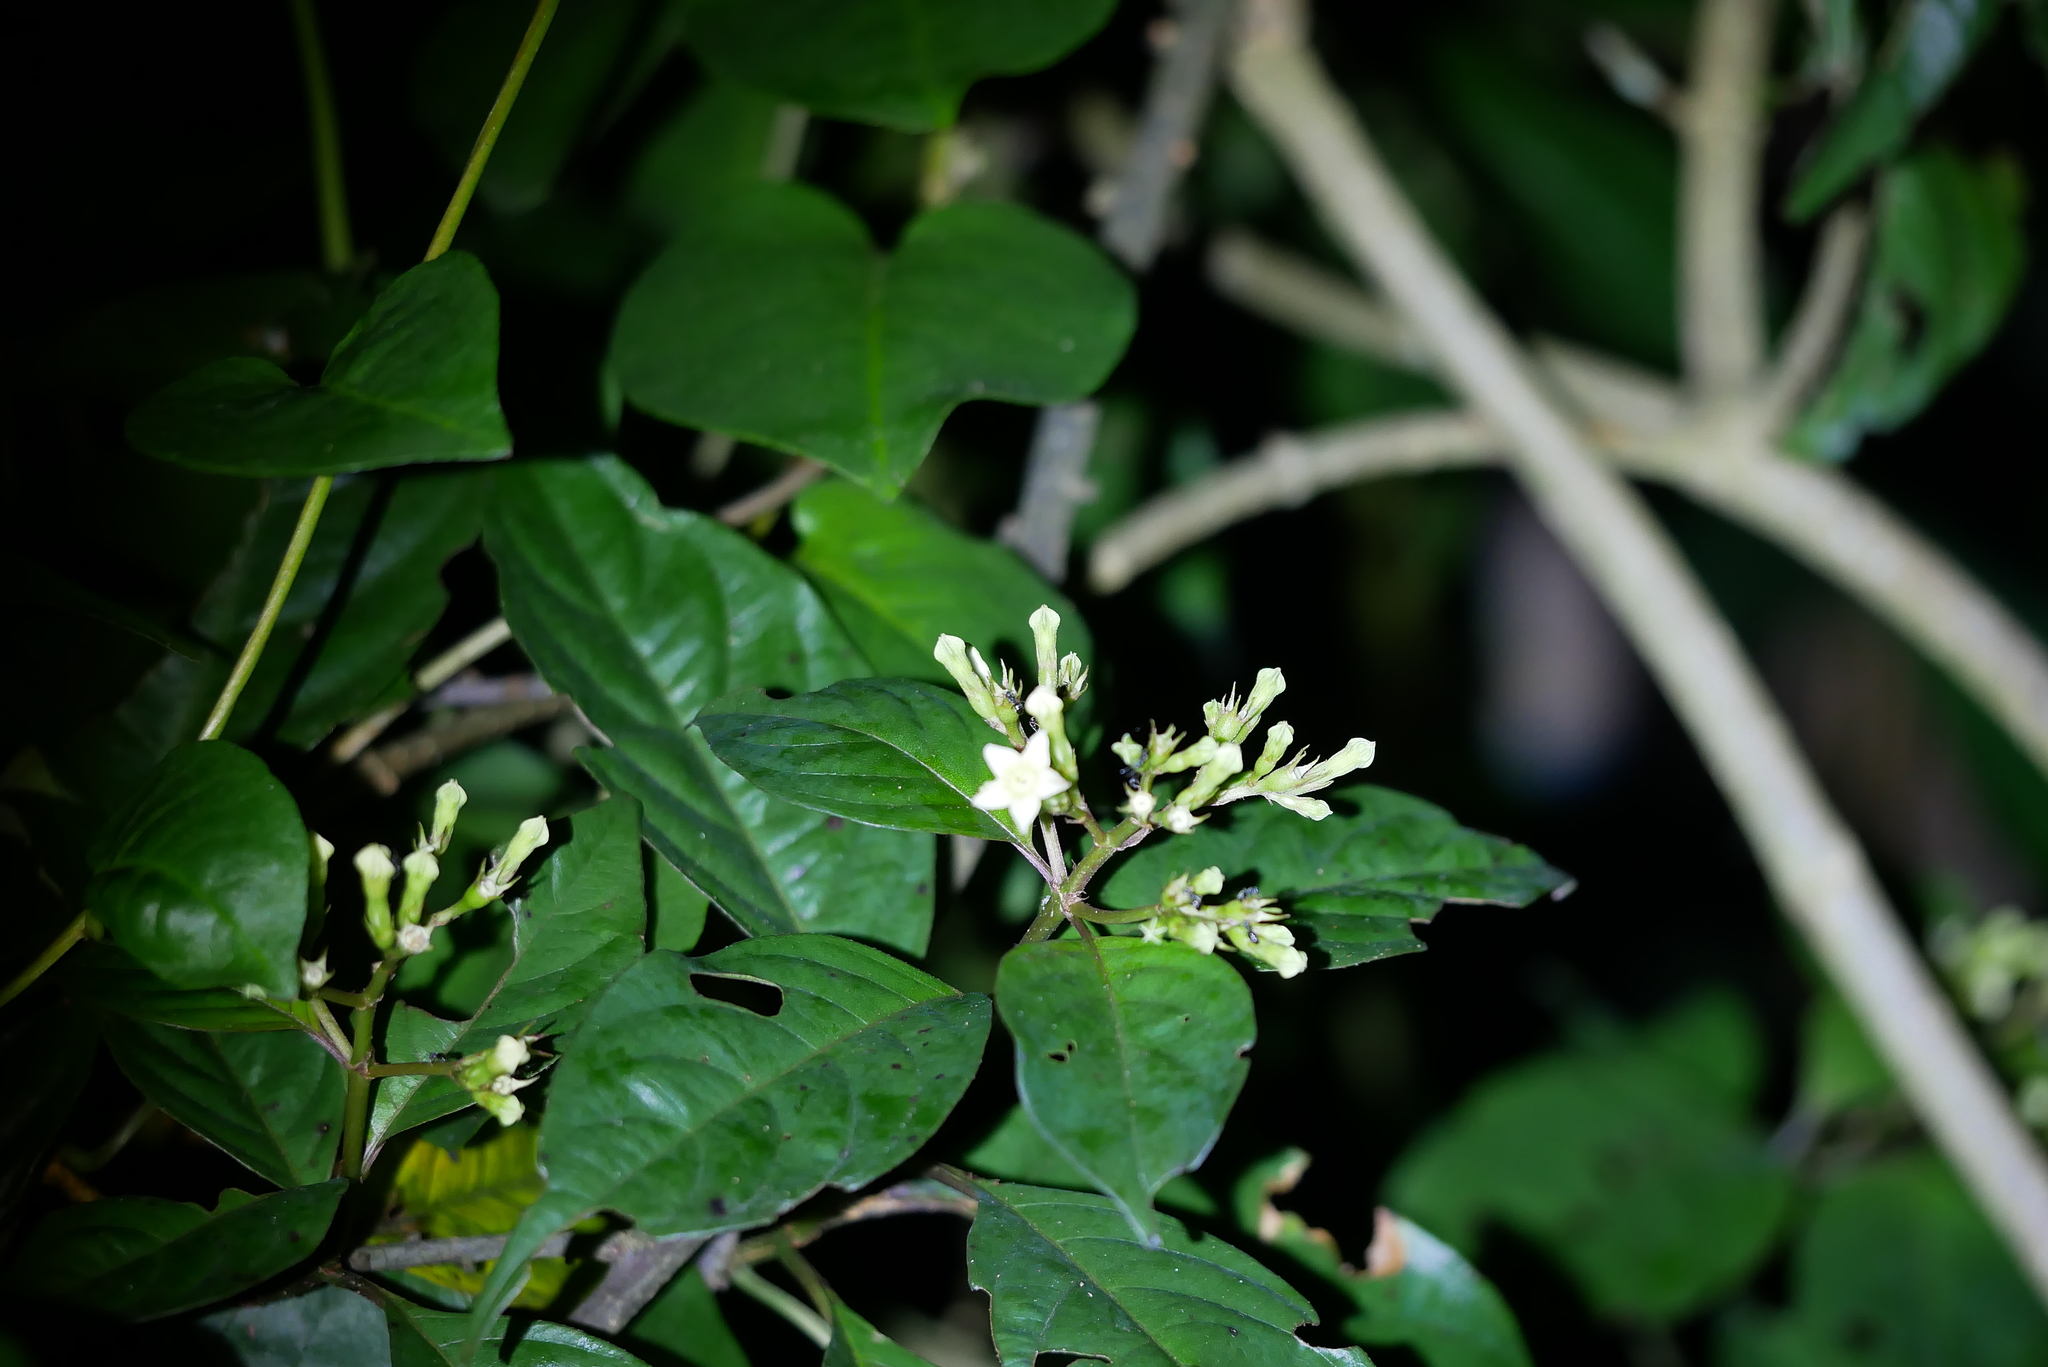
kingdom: Plantae
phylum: Tracheophyta
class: Magnoliopsida
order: Gentianales
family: Rubiaceae
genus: Mussaenda
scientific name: Mussaenda parviflora
